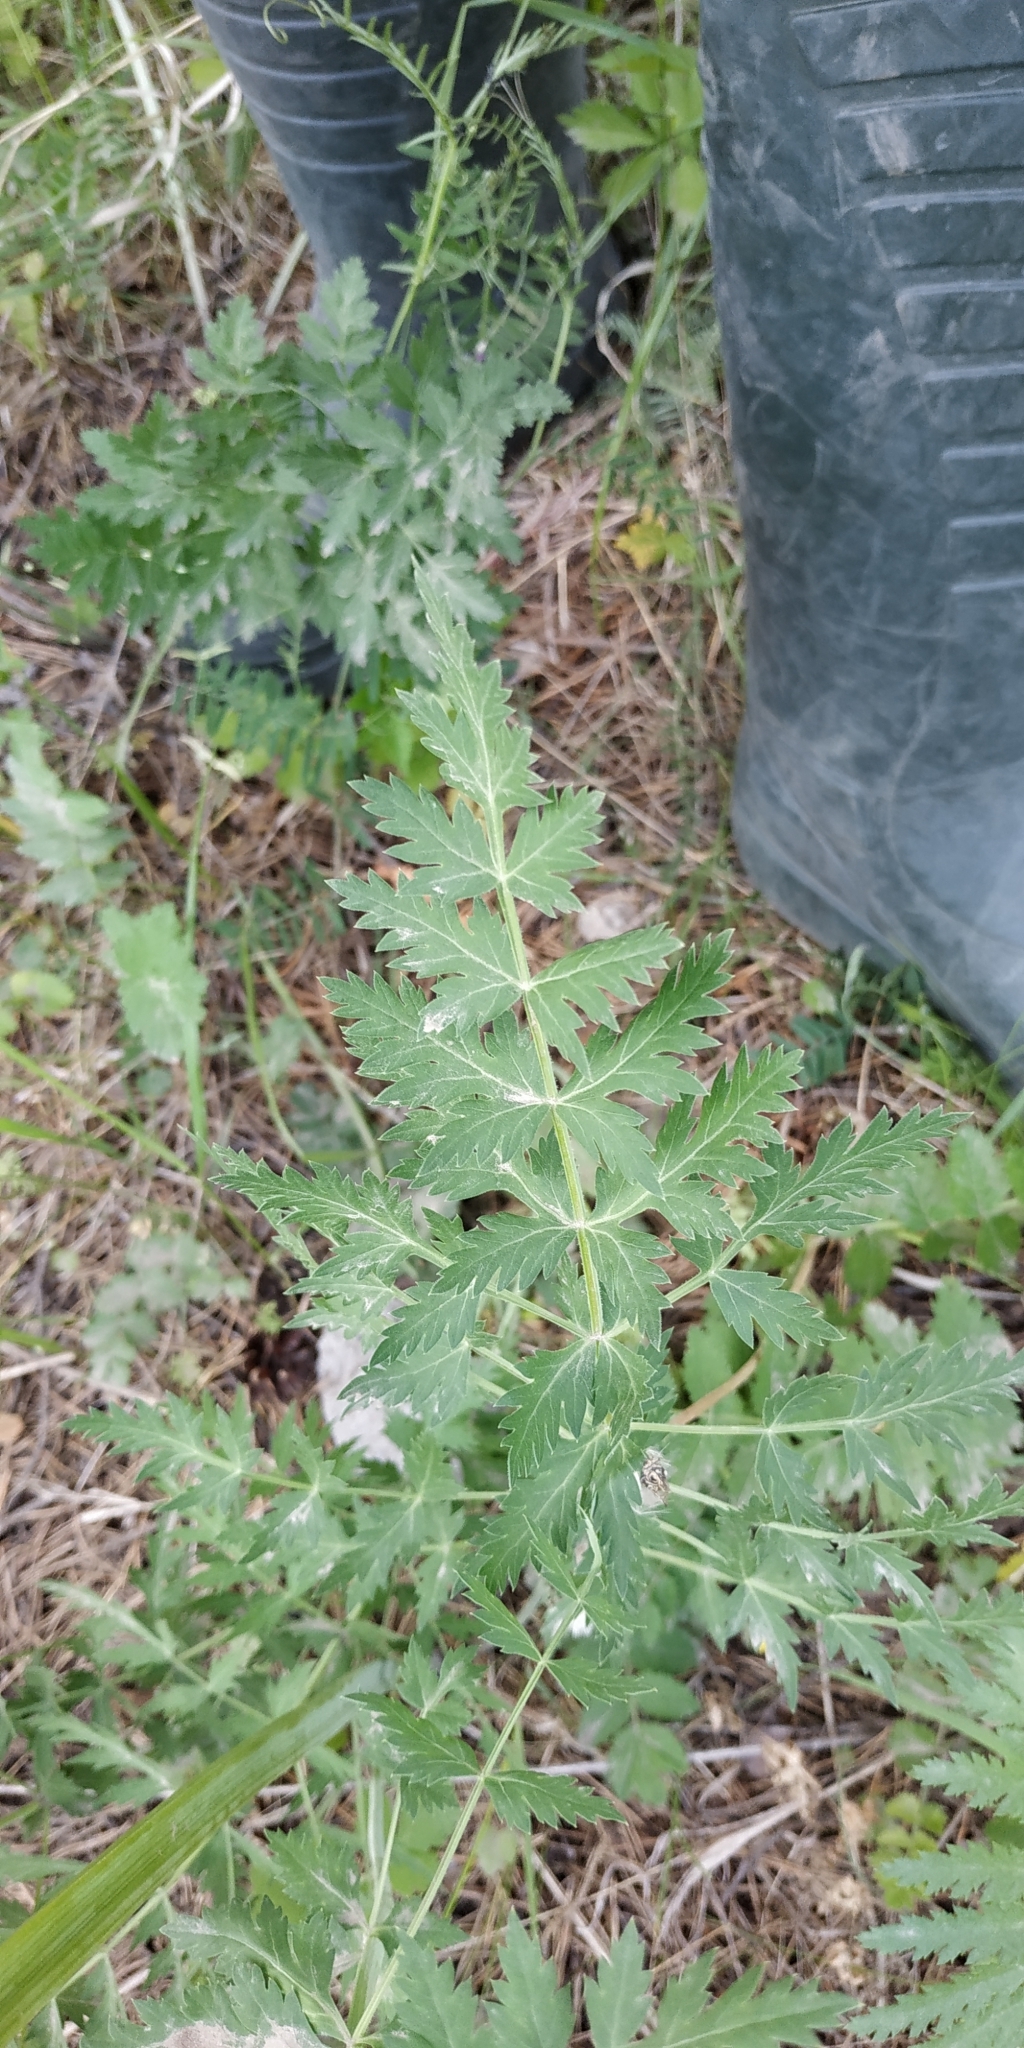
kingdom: Plantae
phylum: Tracheophyta
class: Magnoliopsida
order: Apiales
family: Apiaceae
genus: Seseli
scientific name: Seseli libanotis
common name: Mooncarrot
